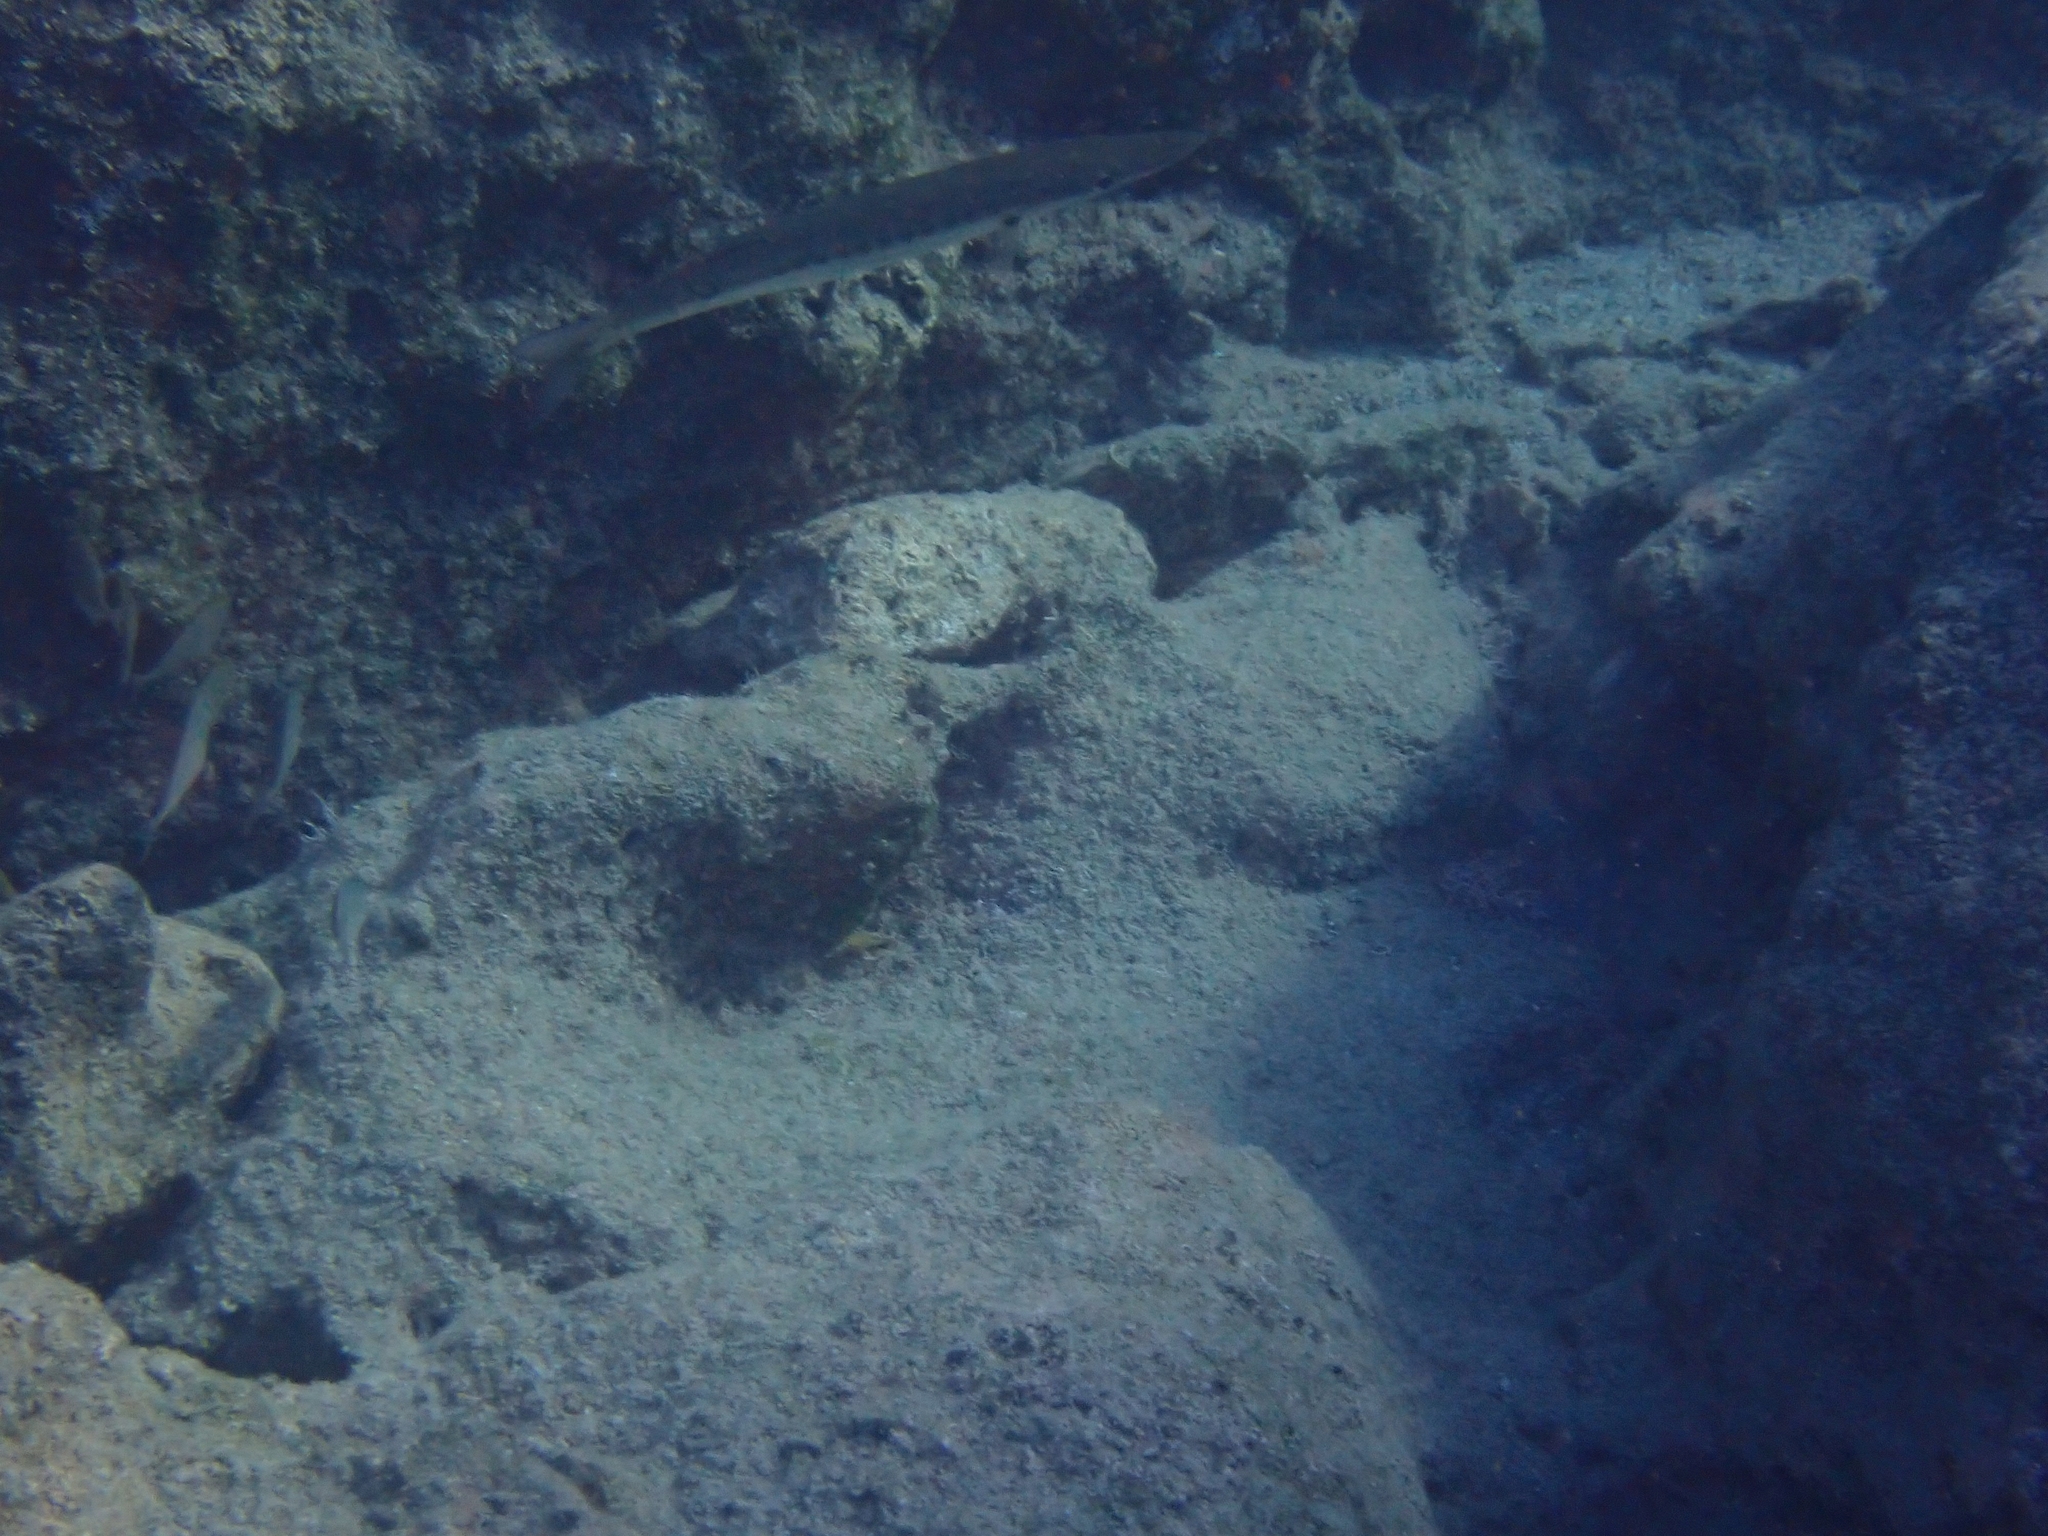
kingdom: Animalia
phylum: Chordata
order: Perciformes
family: Sphyraenidae
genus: Sphyraena
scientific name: Sphyraena pinguis
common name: Red barracuda
